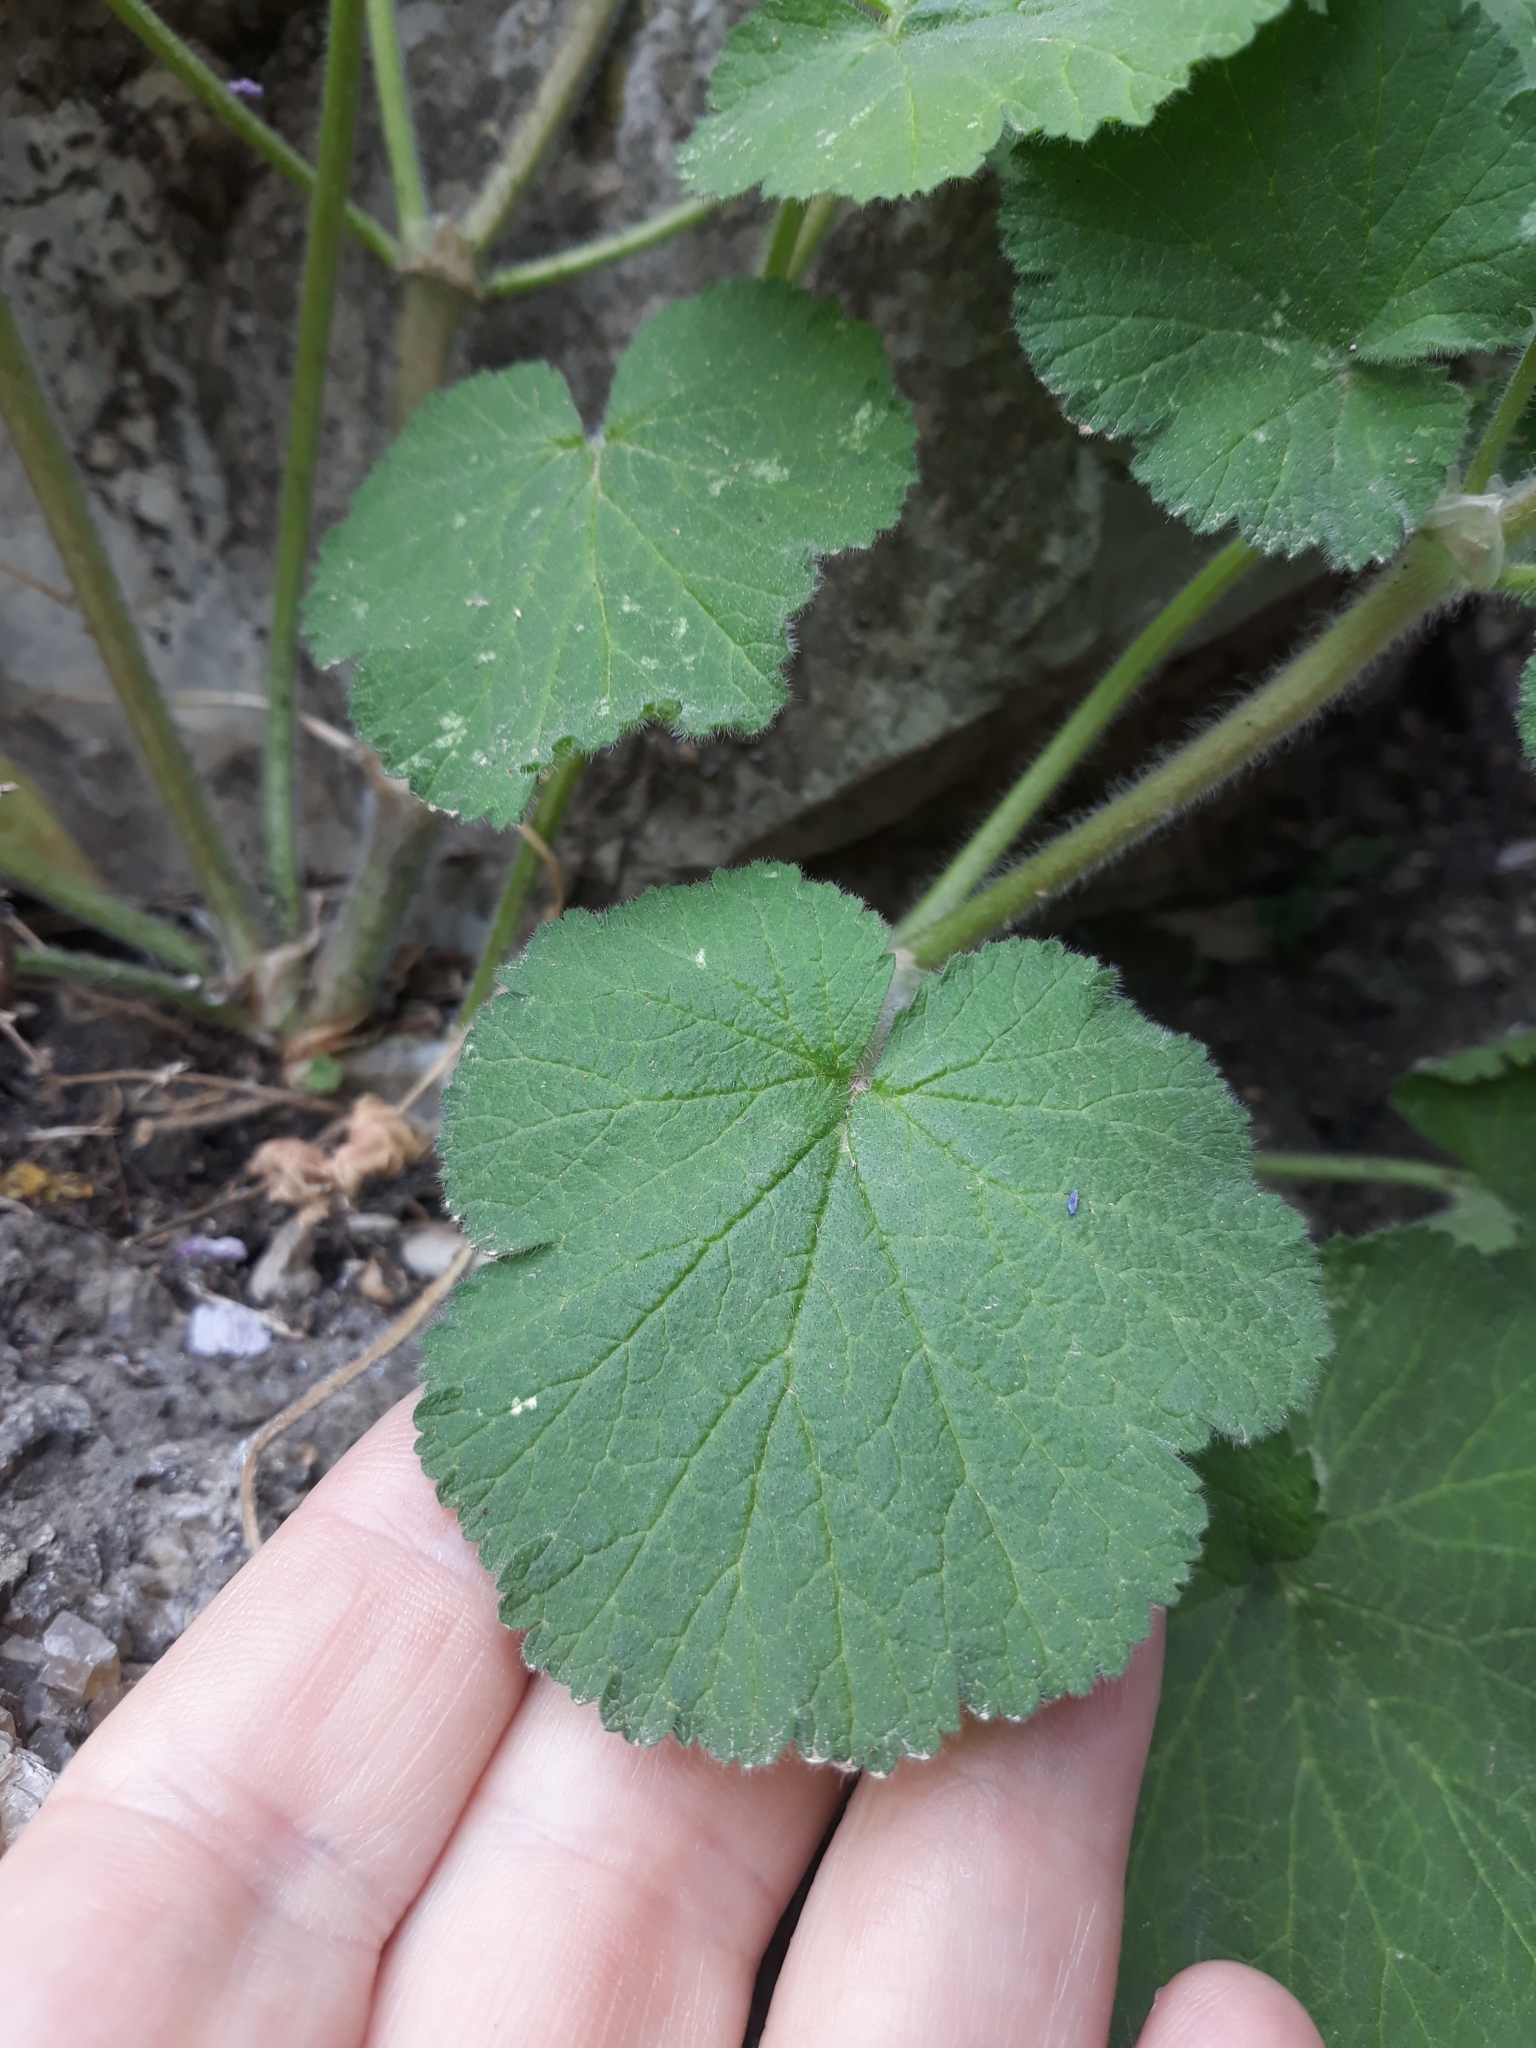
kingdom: Plantae
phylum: Tracheophyta
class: Magnoliopsida
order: Geraniales
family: Geraniaceae
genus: Erodium
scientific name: Erodium trifolium
